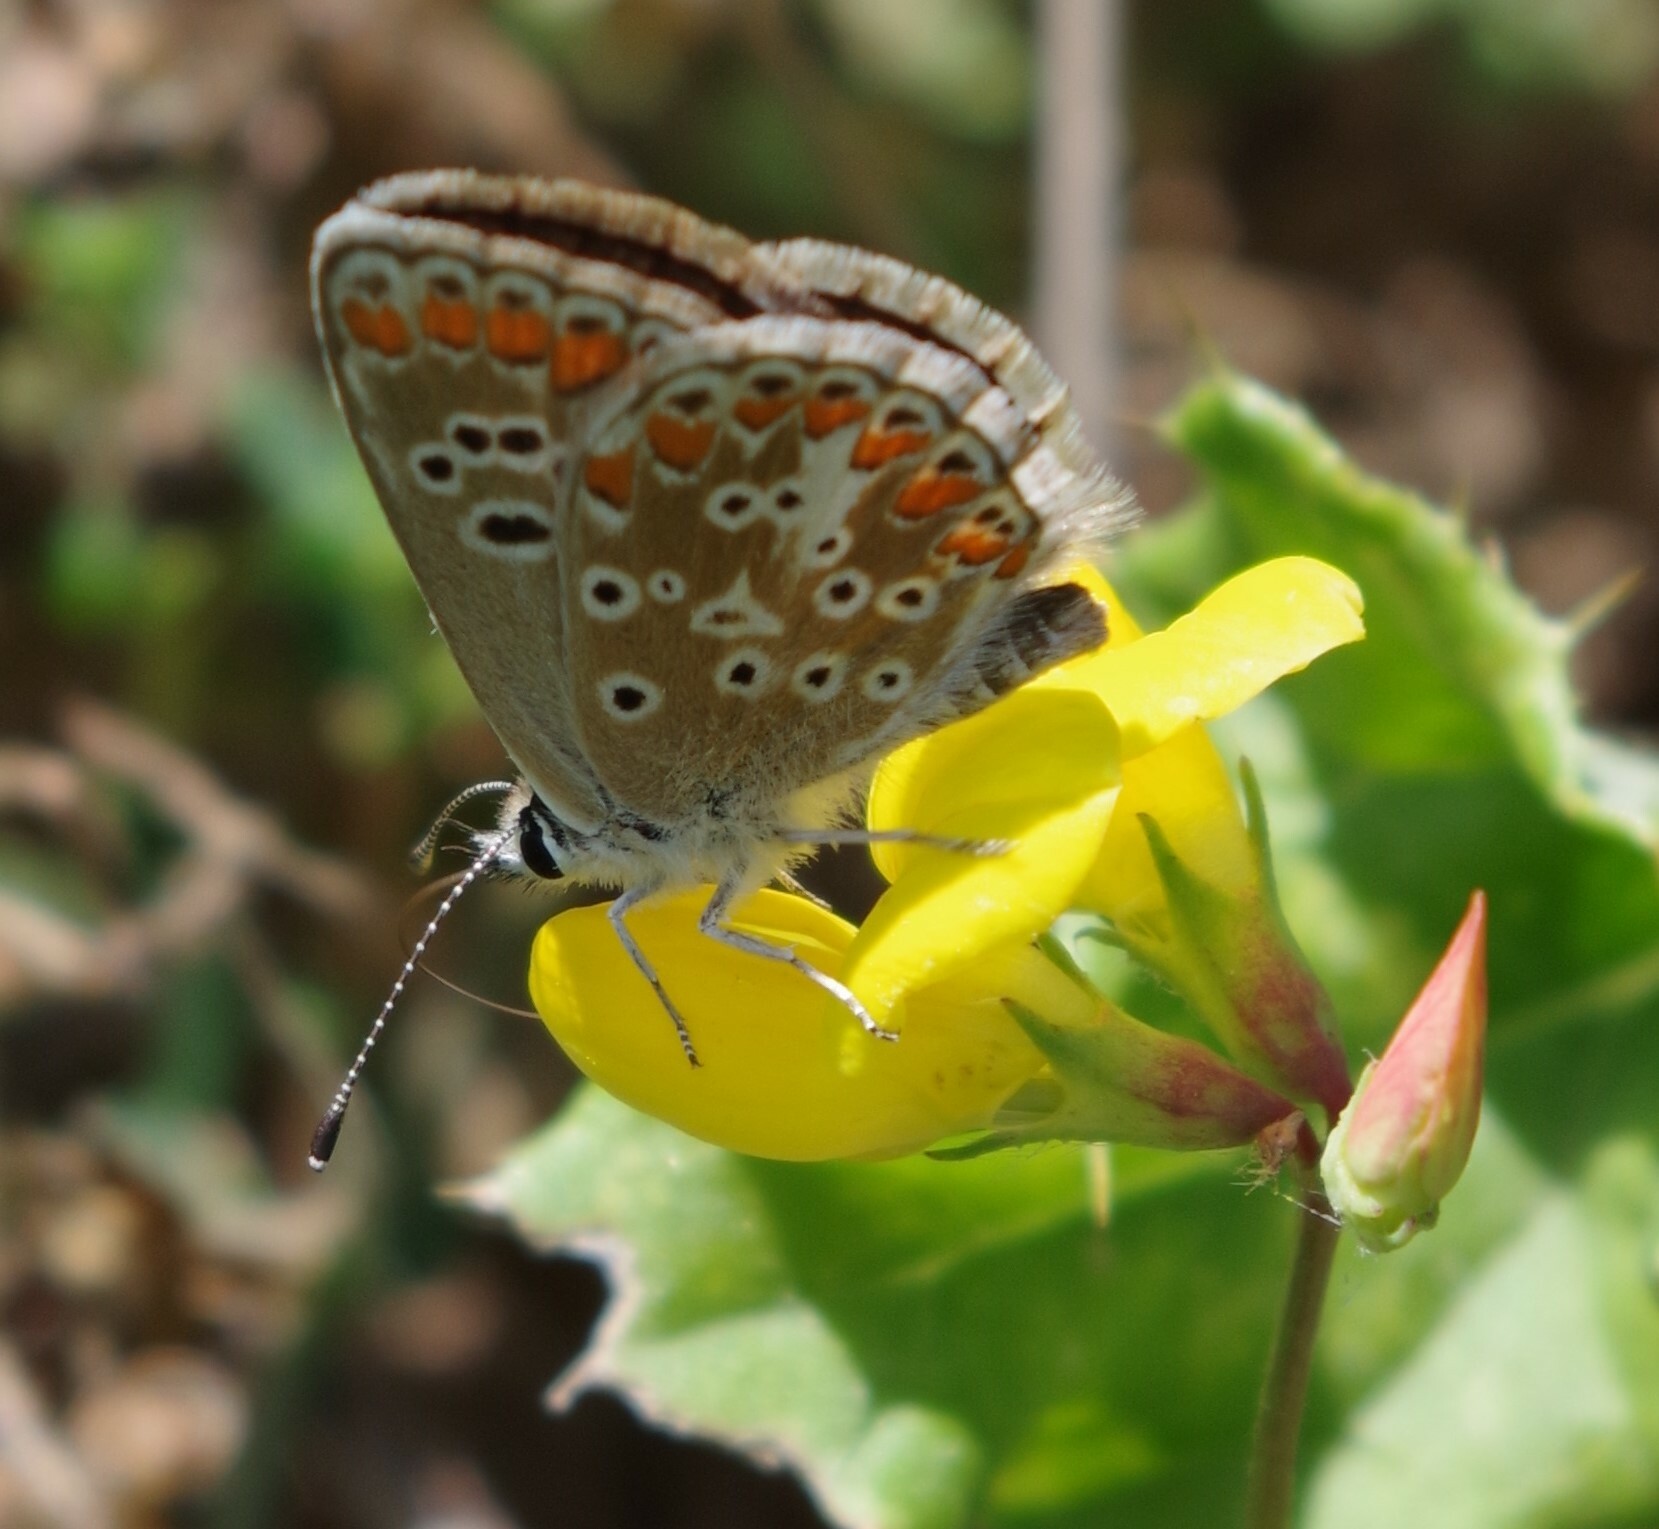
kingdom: Animalia
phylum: Arthropoda
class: Insecta
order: Lepidoptera
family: Lycaenidae
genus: Aricia
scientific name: Aricia agestis
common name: Brown argus
